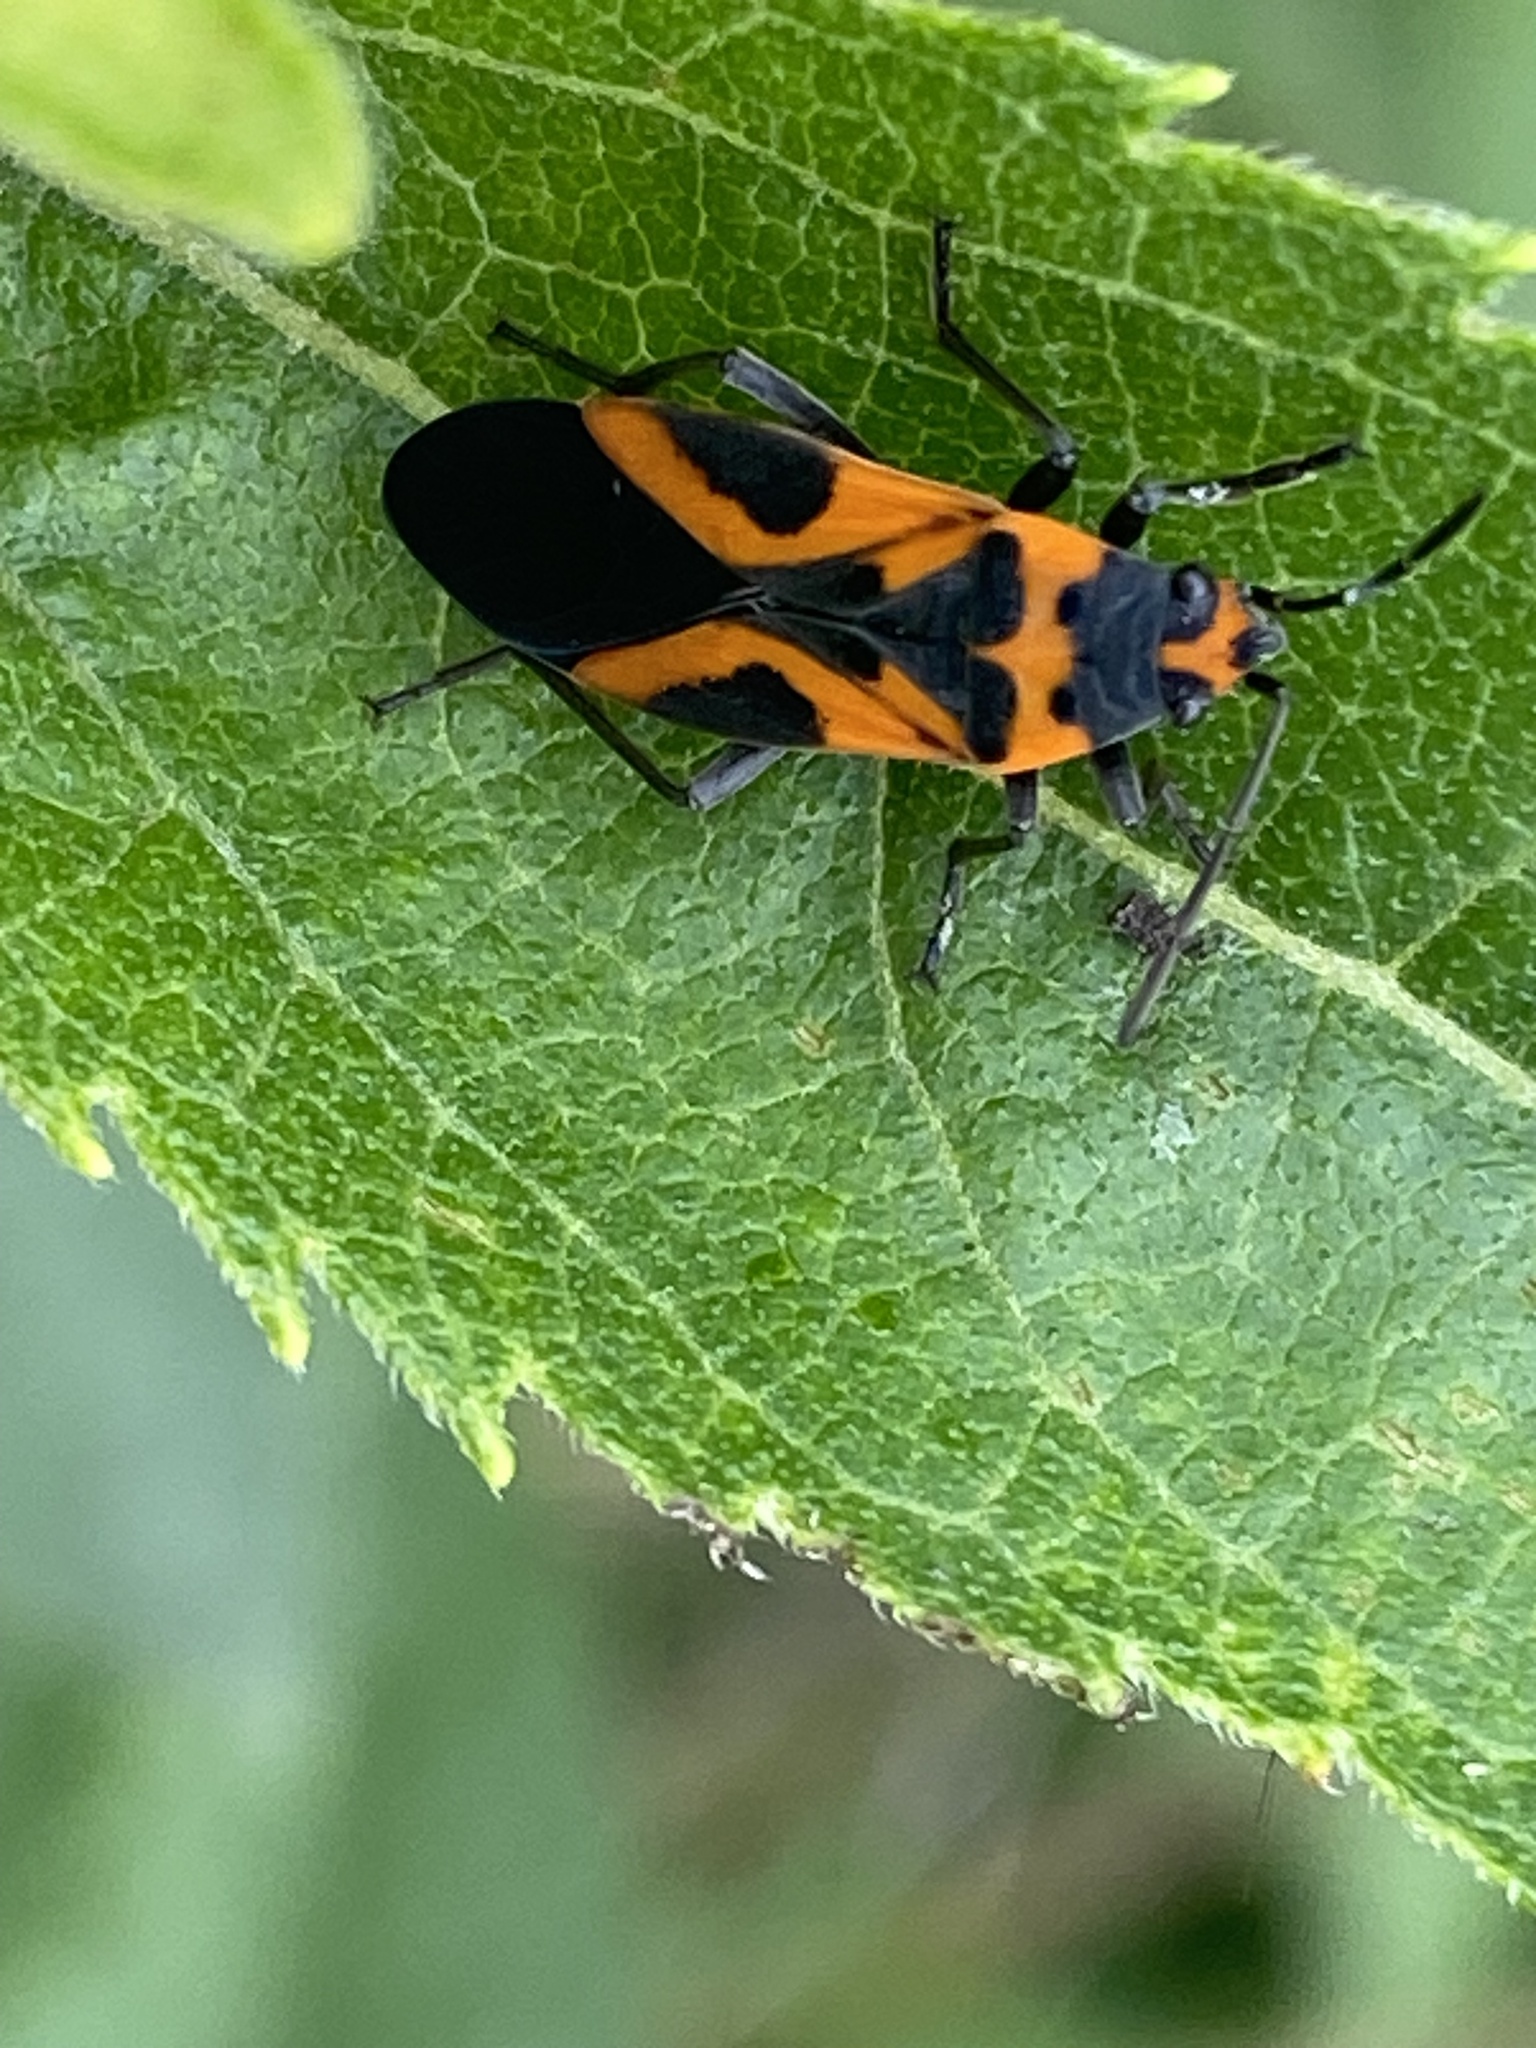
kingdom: Animalia
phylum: Arthropoda
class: Insecta
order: Hemiptera
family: Lygaeidae
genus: Lygaeus
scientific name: Lygaeus turcicus
